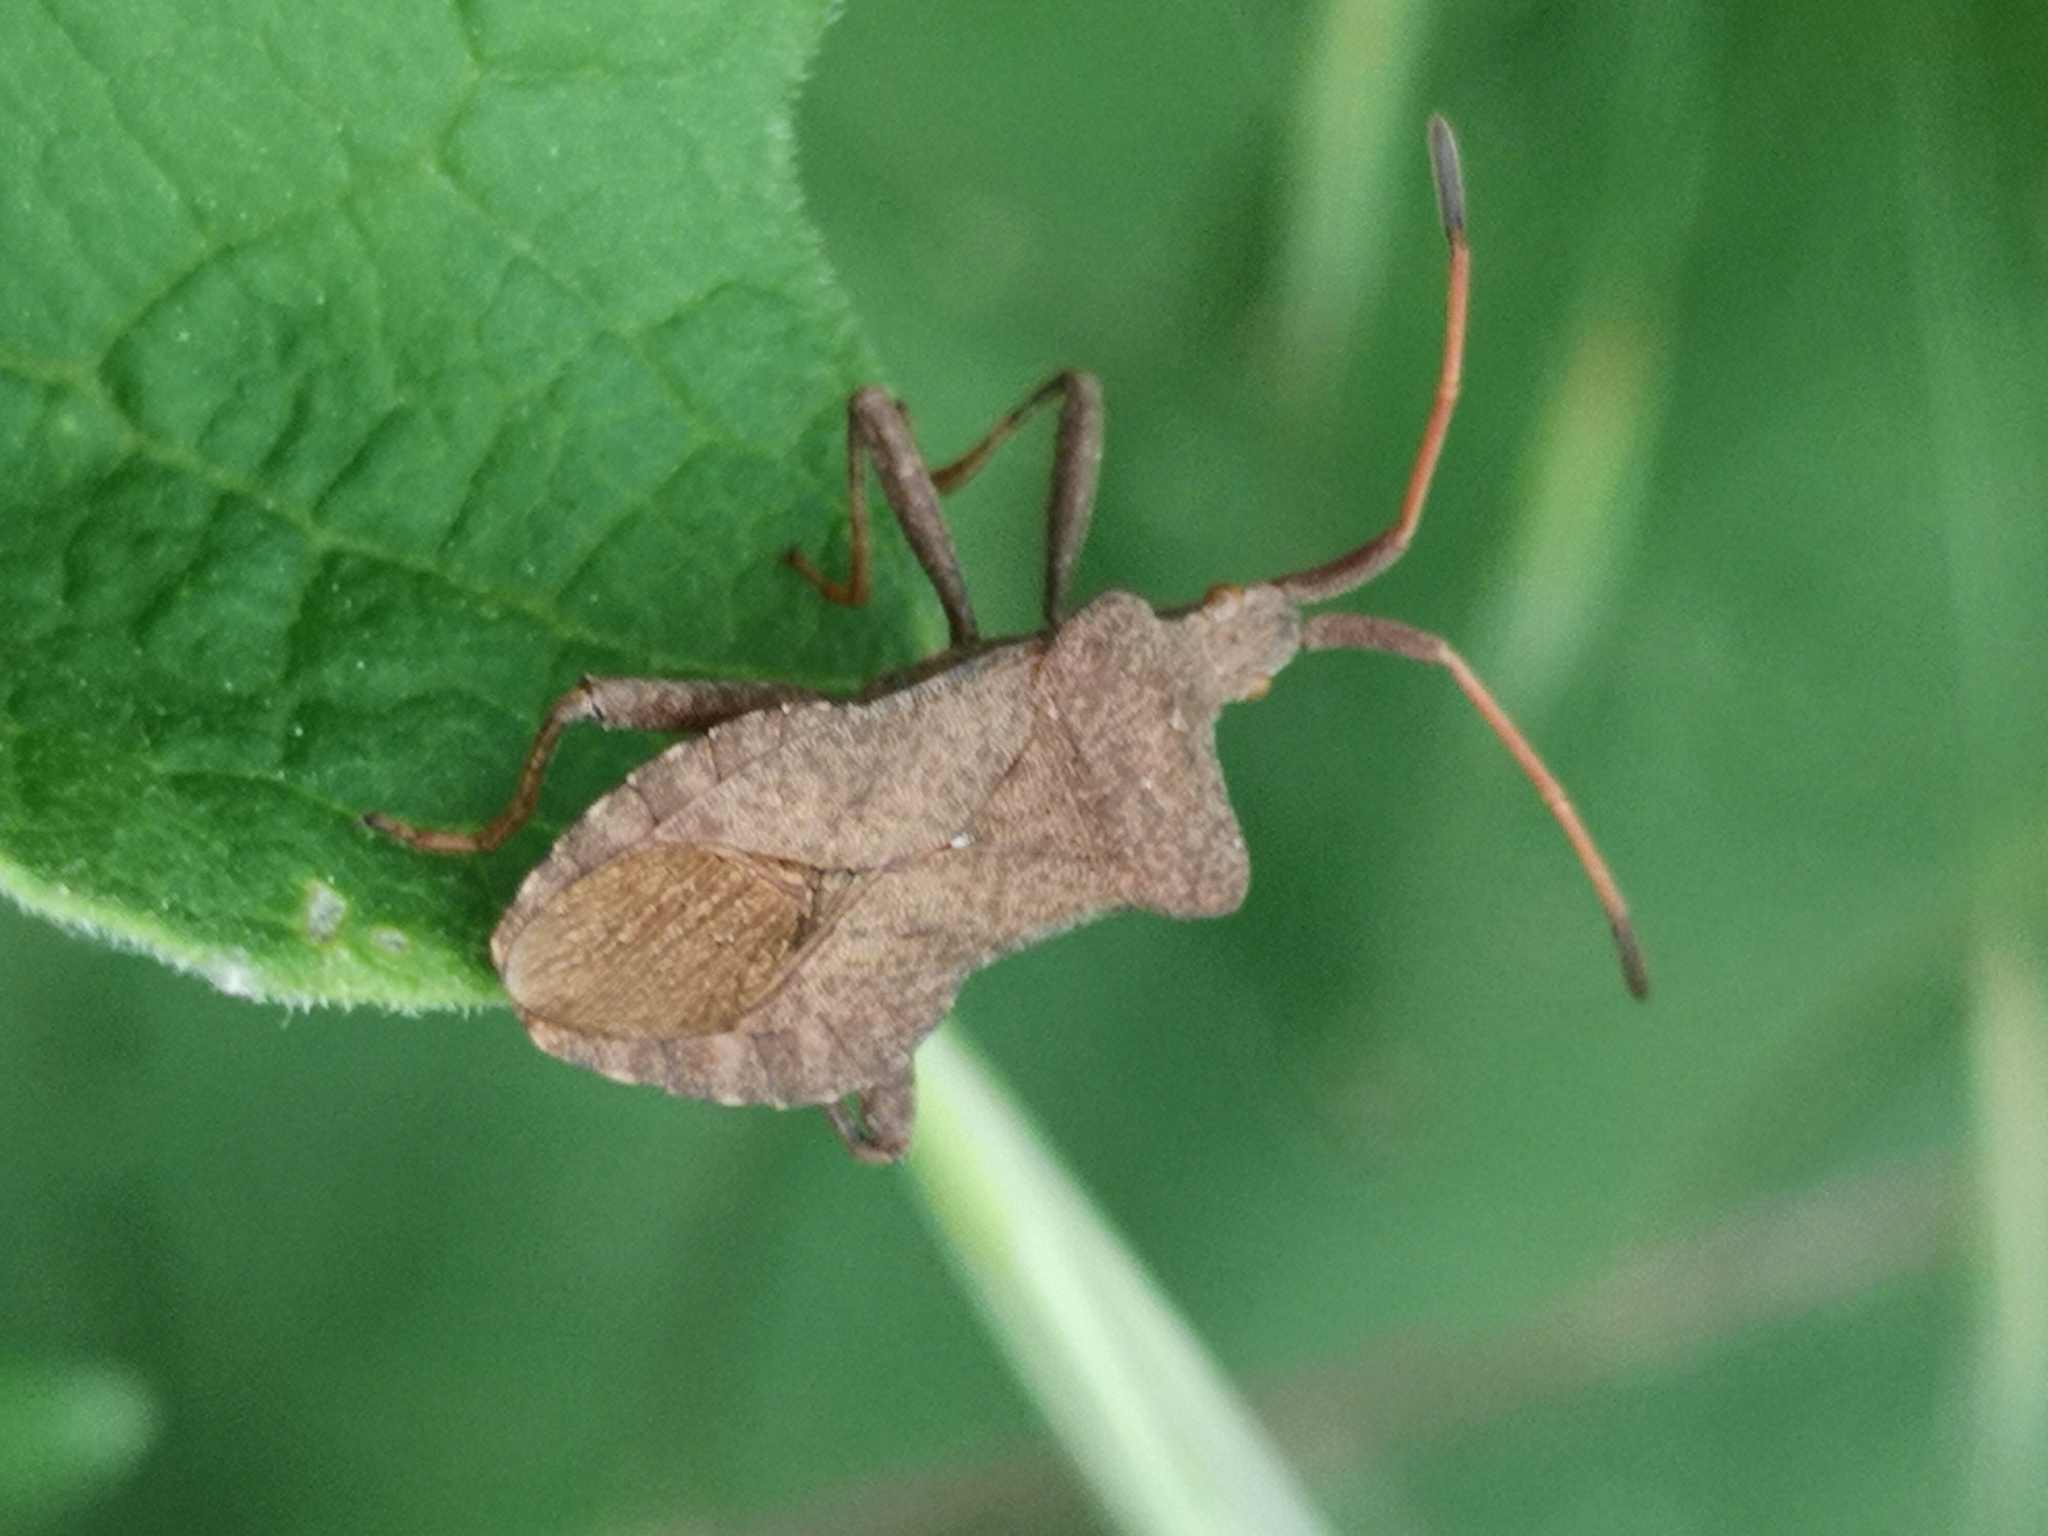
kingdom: Animalia
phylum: Arthropoda
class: Insecta
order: Hemiptera
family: Coreidae
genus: Coreus
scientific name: Coreus marginatus
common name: Dock bug
